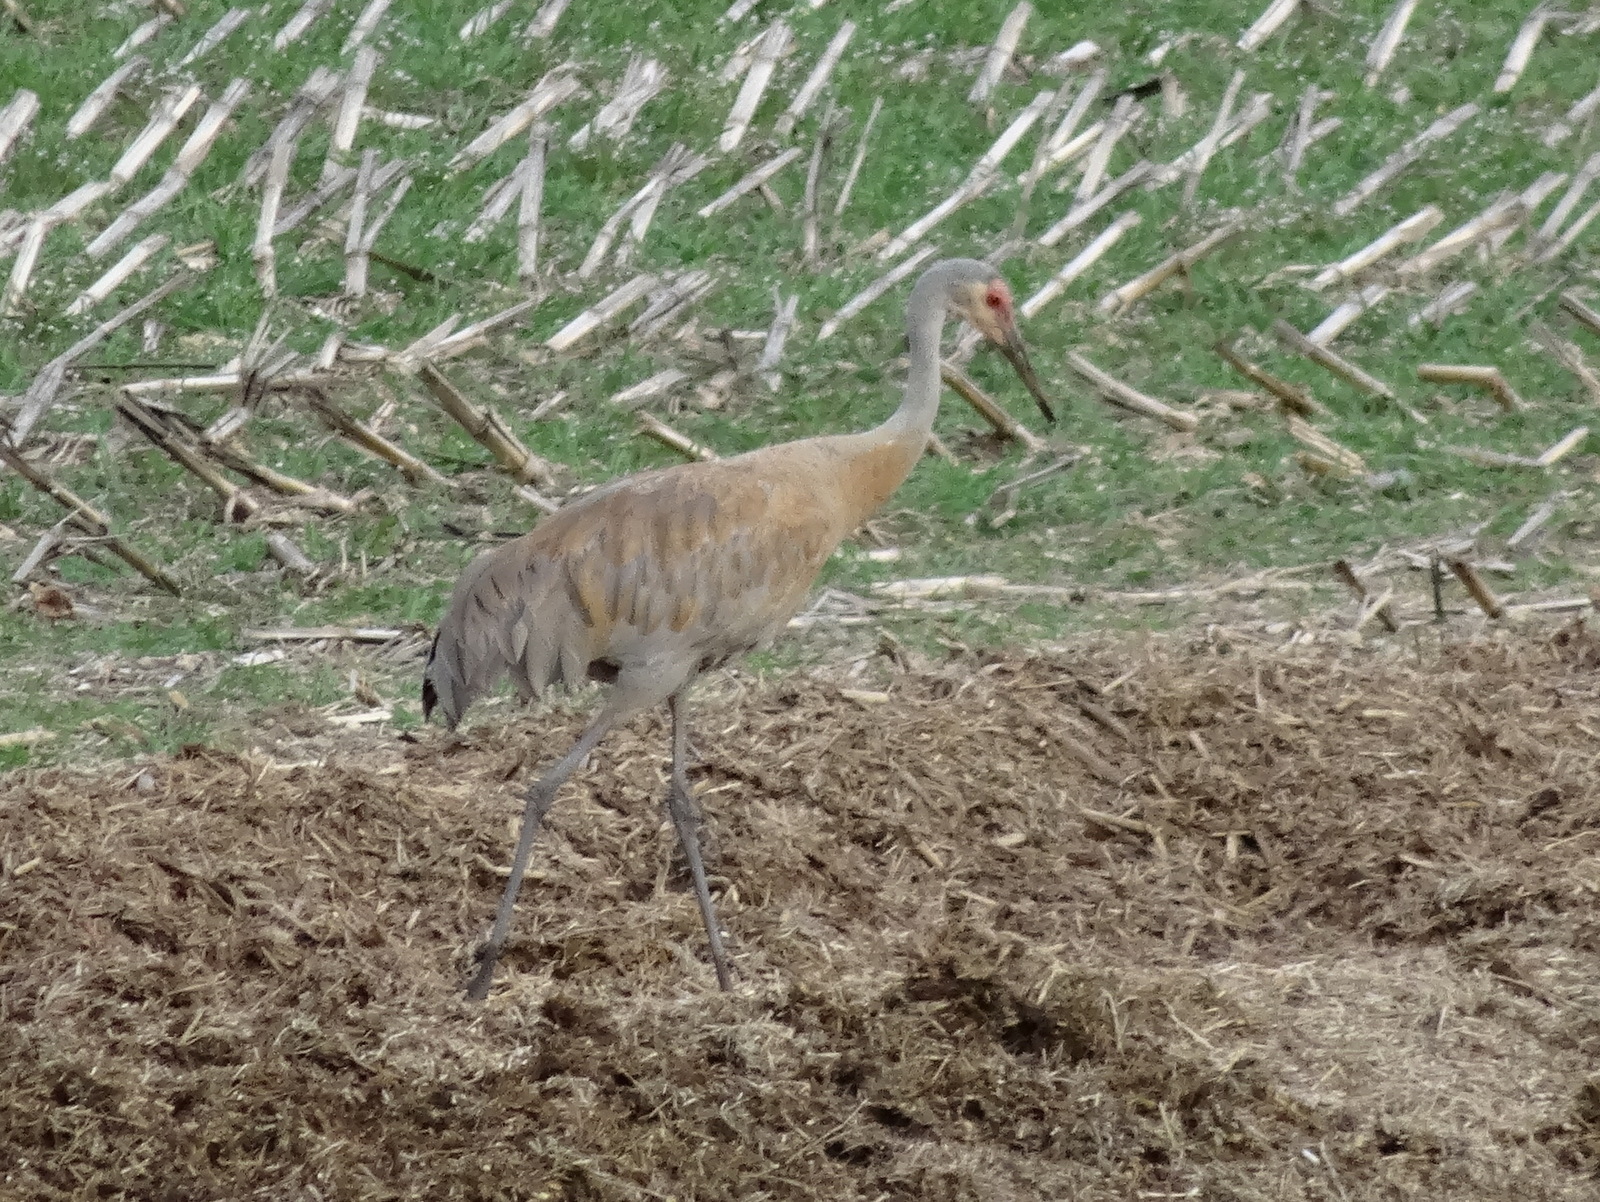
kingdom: Animalia
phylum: Chordata
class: Aves
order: Gruiformes
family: Gruidae
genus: Grus
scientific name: Grus canadensis
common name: Sandhill crane
